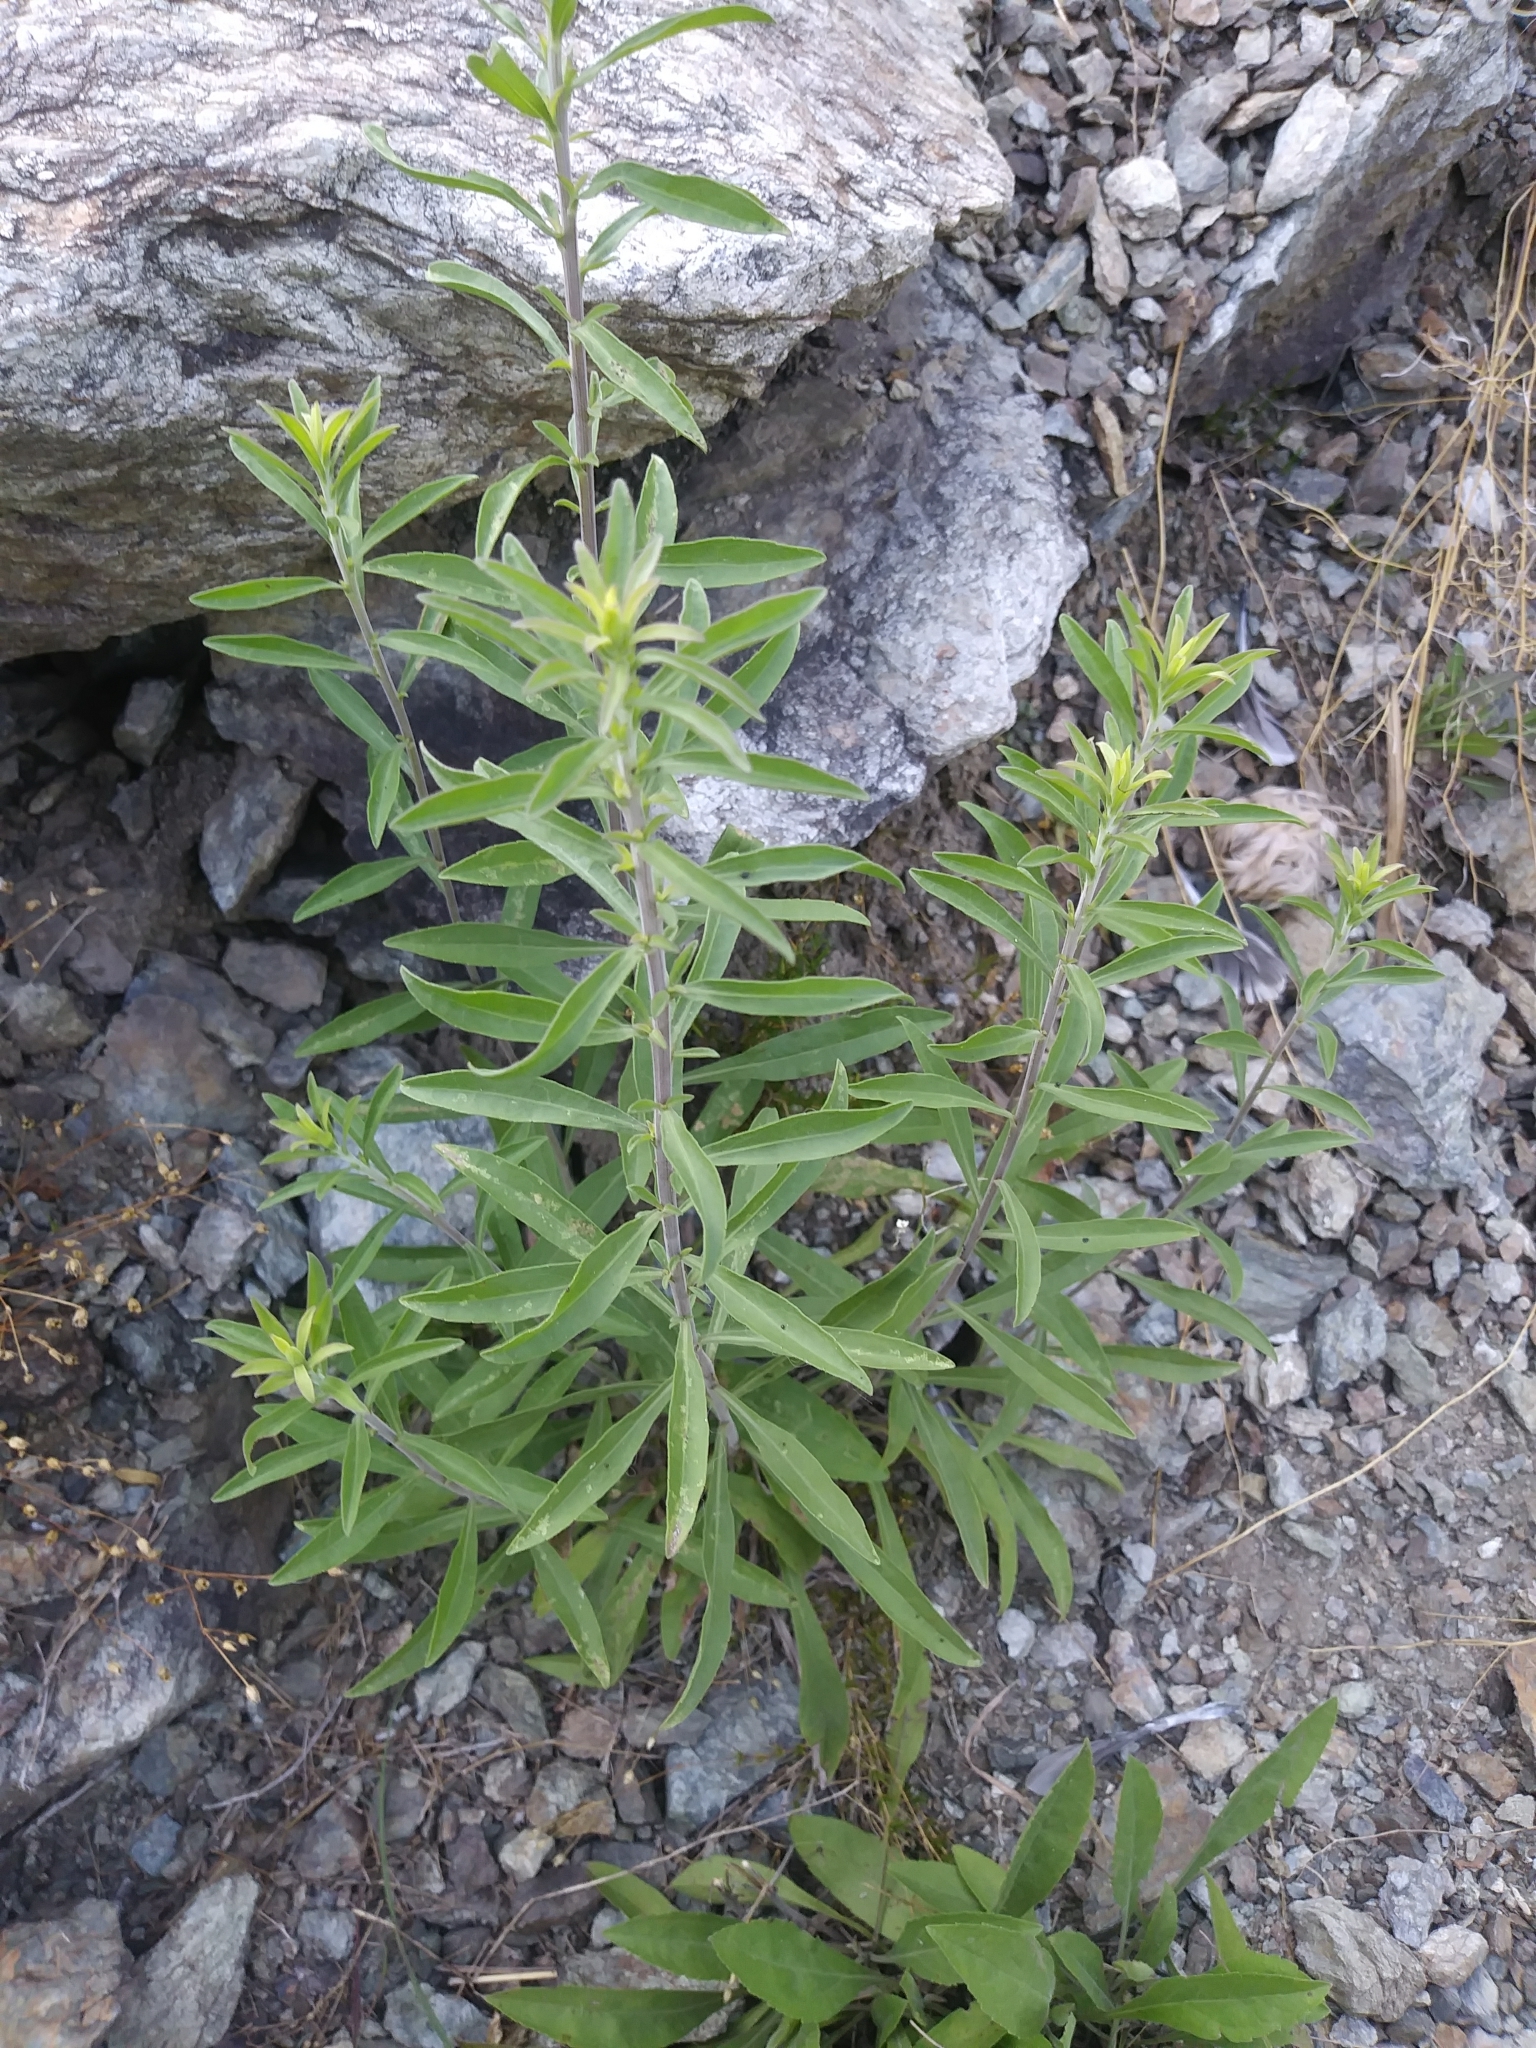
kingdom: Plantae
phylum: Tracheophyta
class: Magnoliopsida
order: Asterales
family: Asteraceae
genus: Solidago
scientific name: Solidago nemoralis
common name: Grey goldenrod
